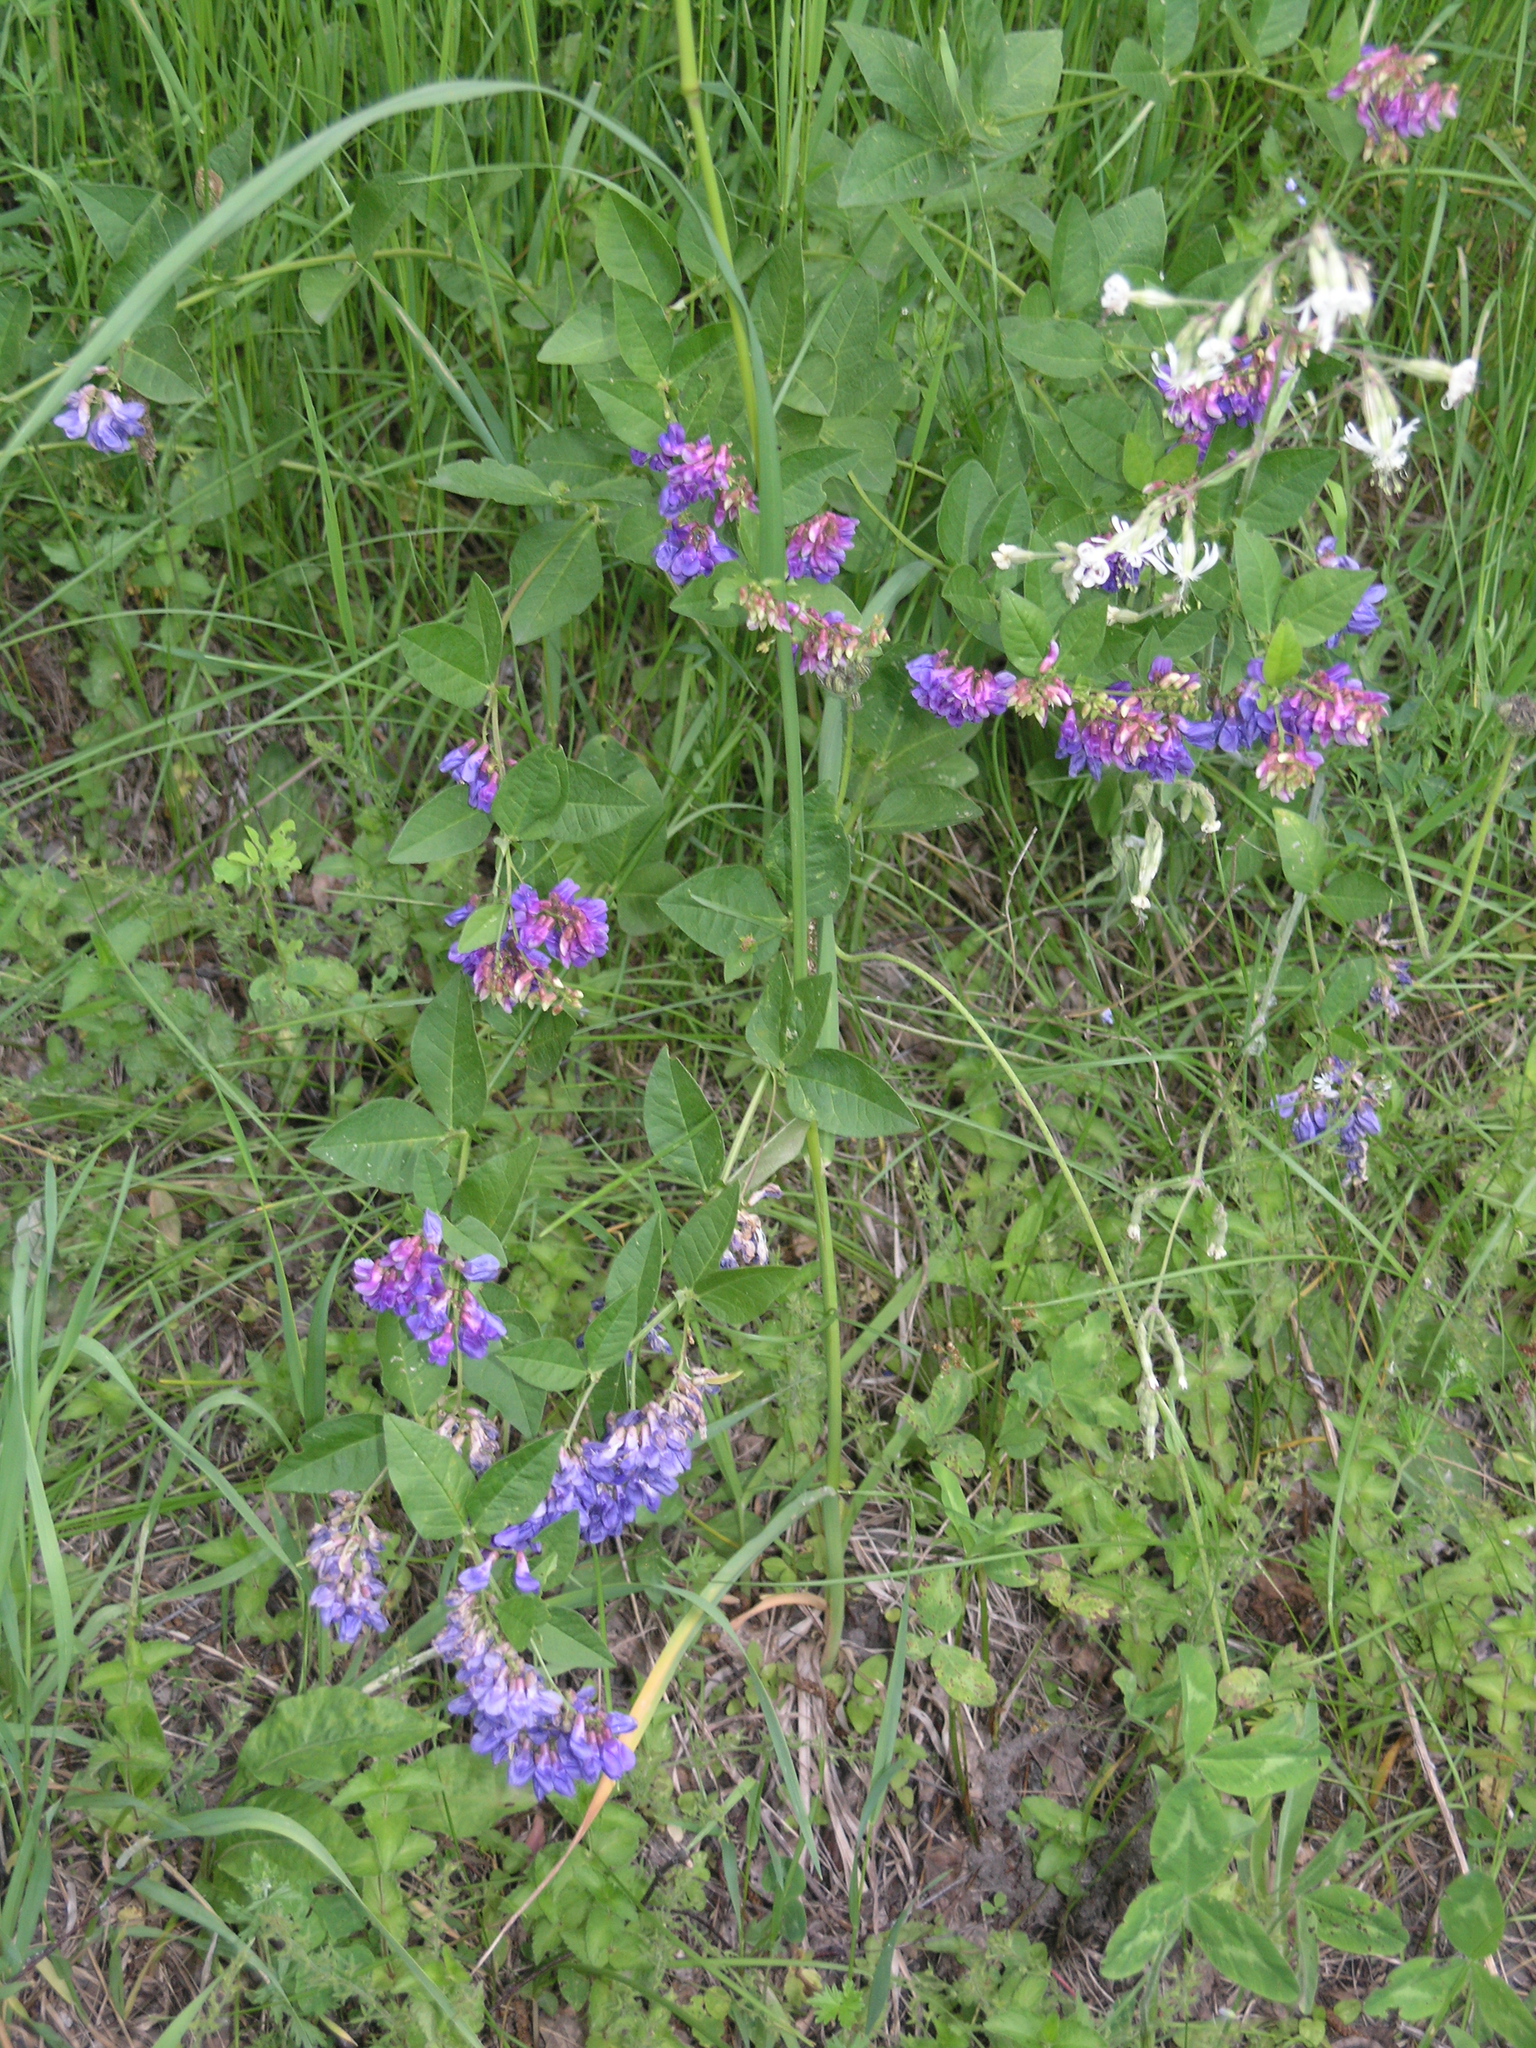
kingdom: Plantae
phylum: Tracheophyta
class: Magnoliopsida
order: Fabales
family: Fabaceae
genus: Vicia
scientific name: Vicia unijuga
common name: Two-leaf vetch
